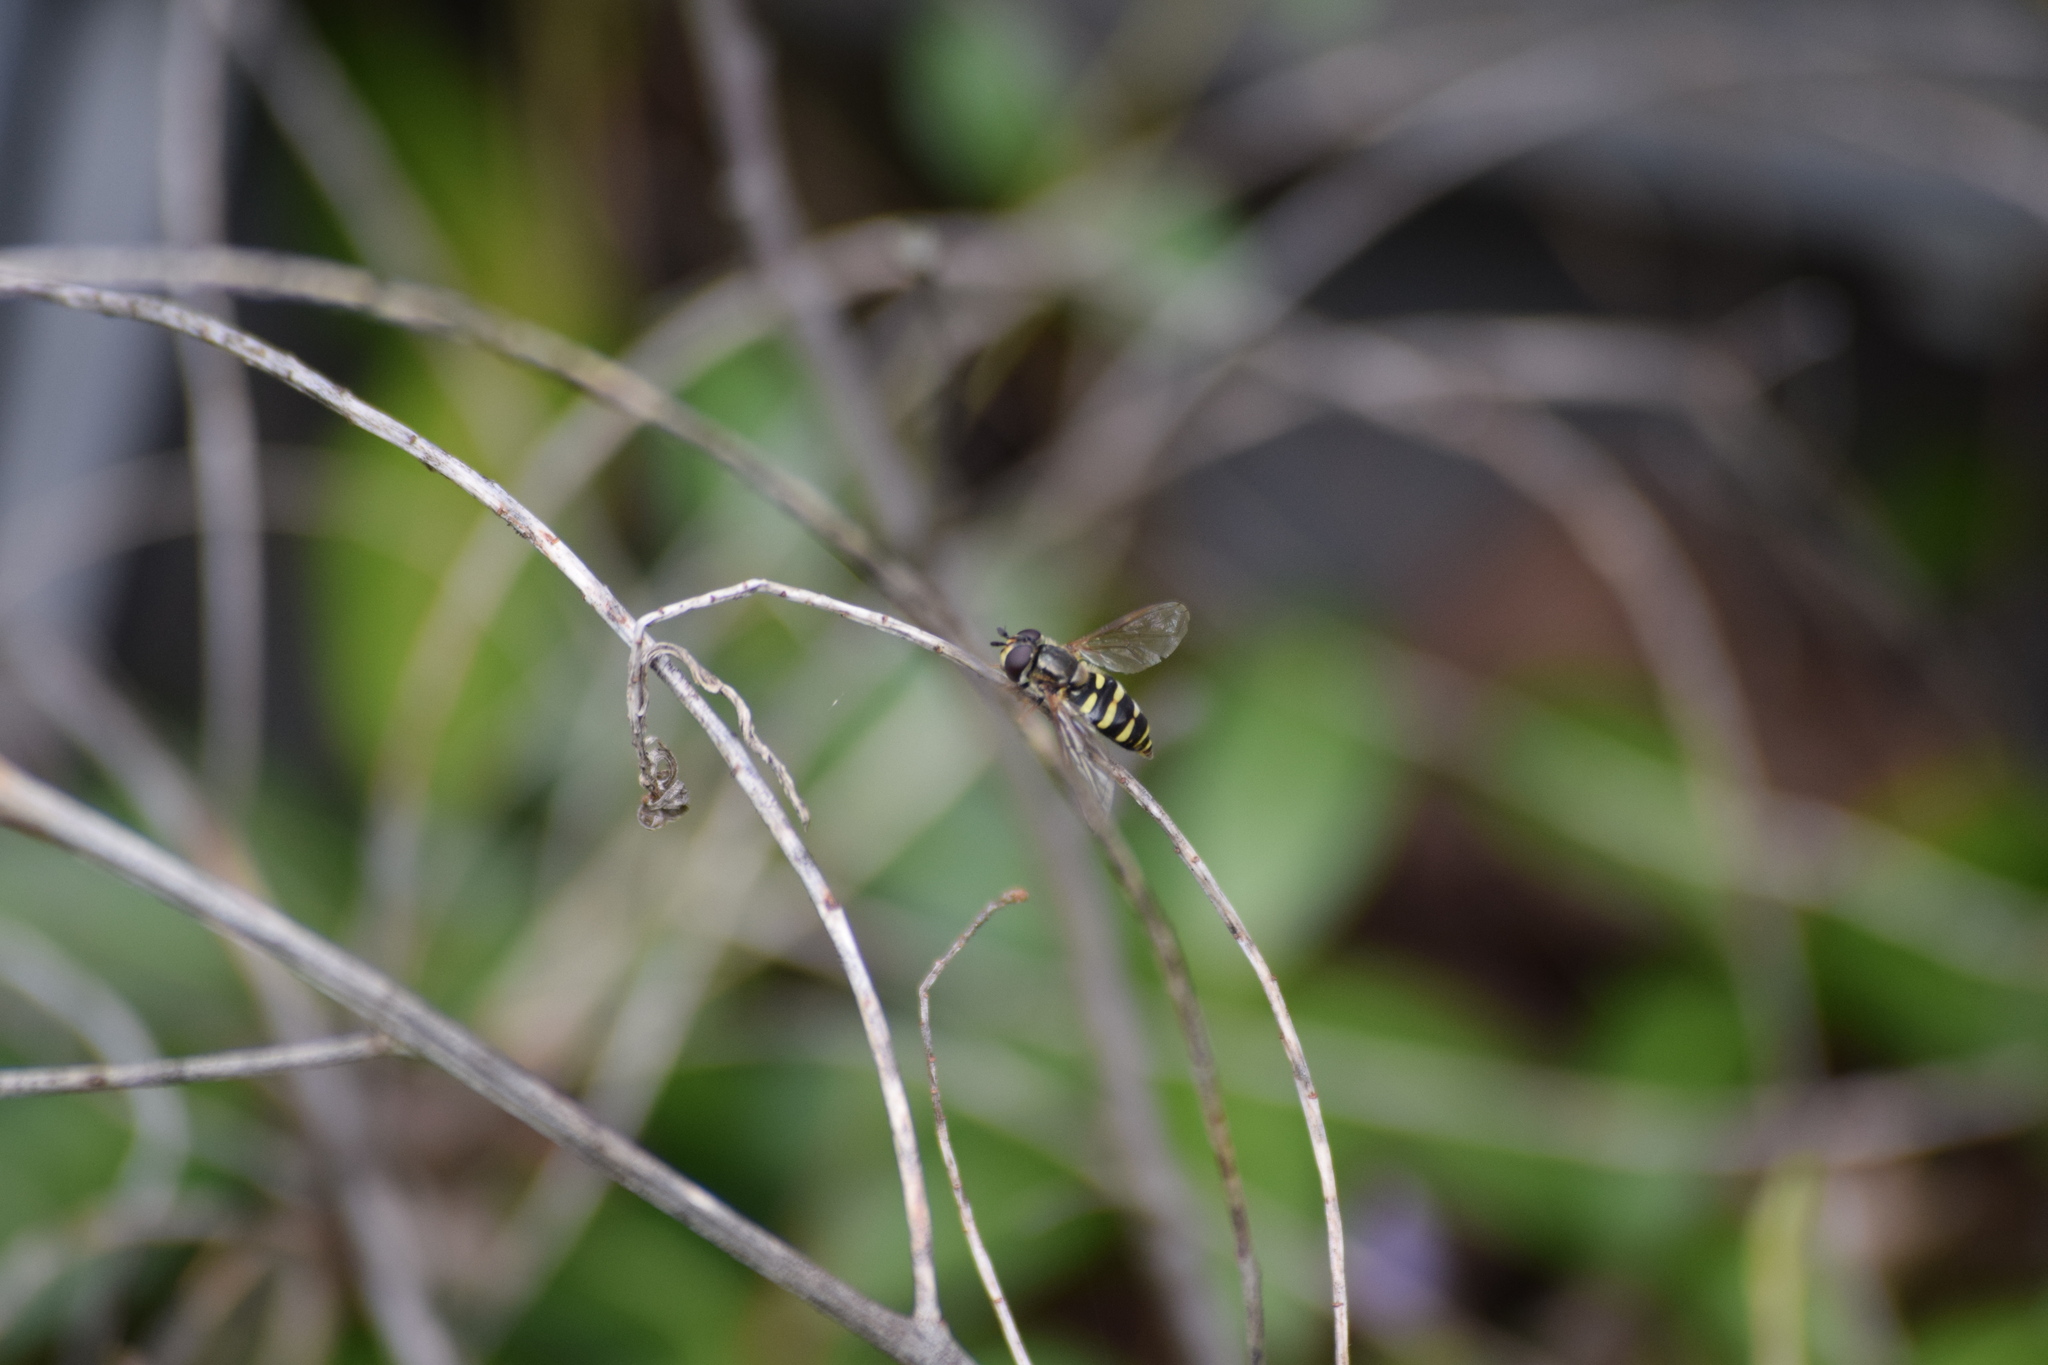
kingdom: Animalia
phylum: Arthropoda
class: Insecta
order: Diptera
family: Syrphidae
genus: Eupeodes
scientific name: Eupeodes
